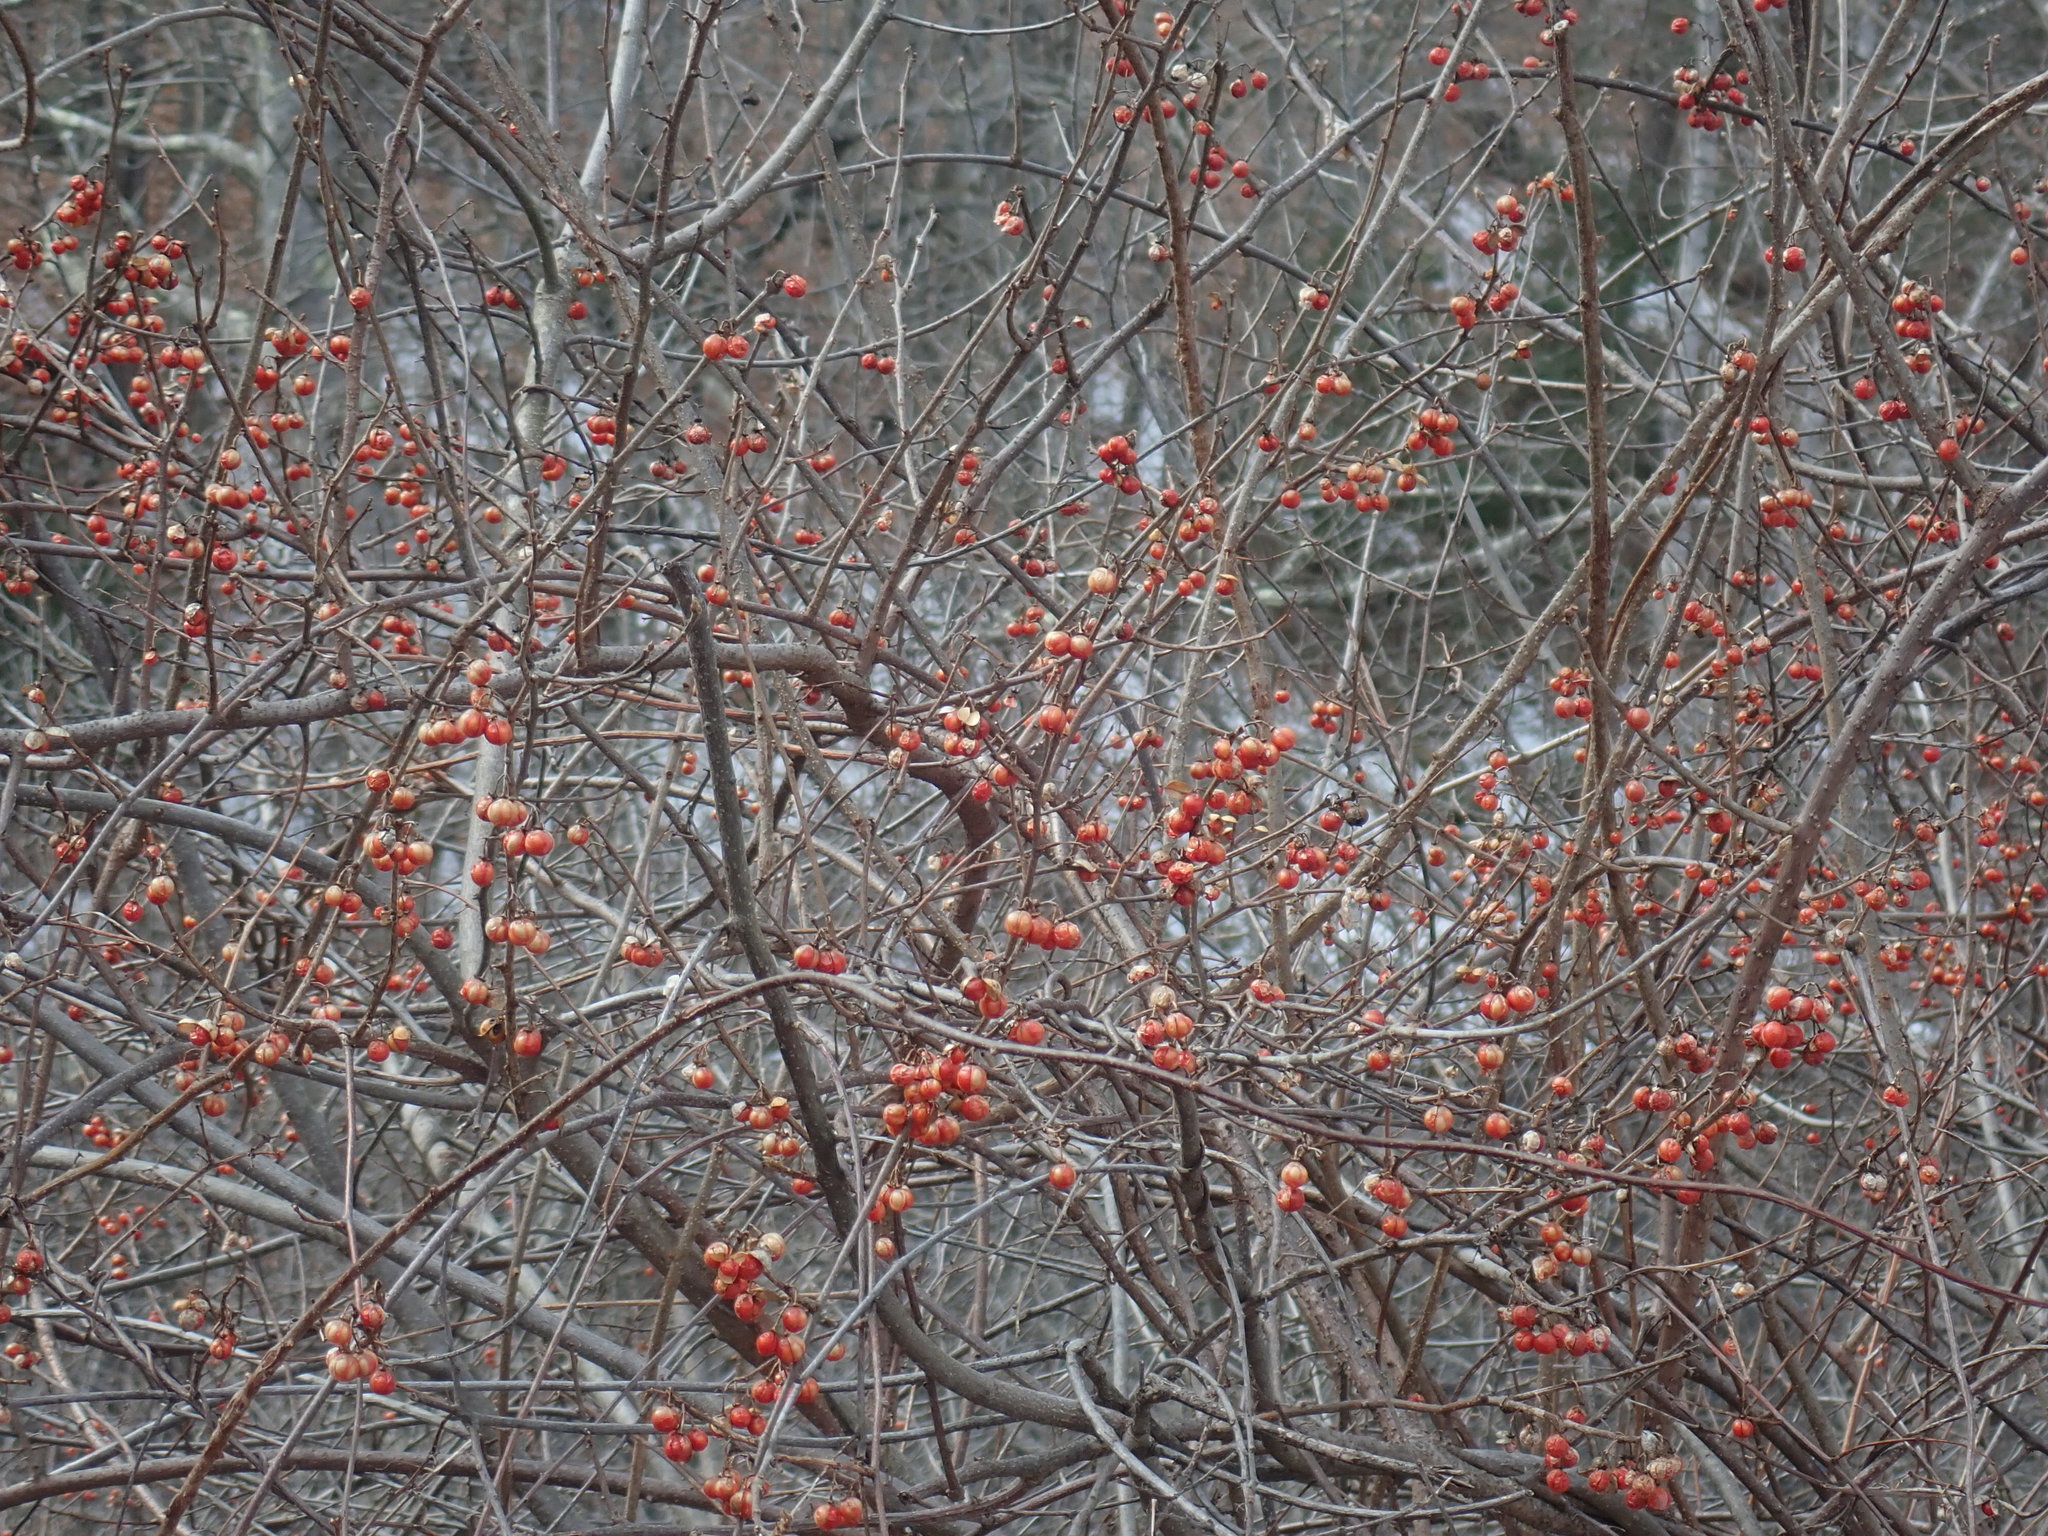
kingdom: Plantae
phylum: Tracheophyta
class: Magnoliopsida
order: Celastrales
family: Celastraceae
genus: Celastrus
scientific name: Celastrus orbiculatus
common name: Oriental bittersweet
